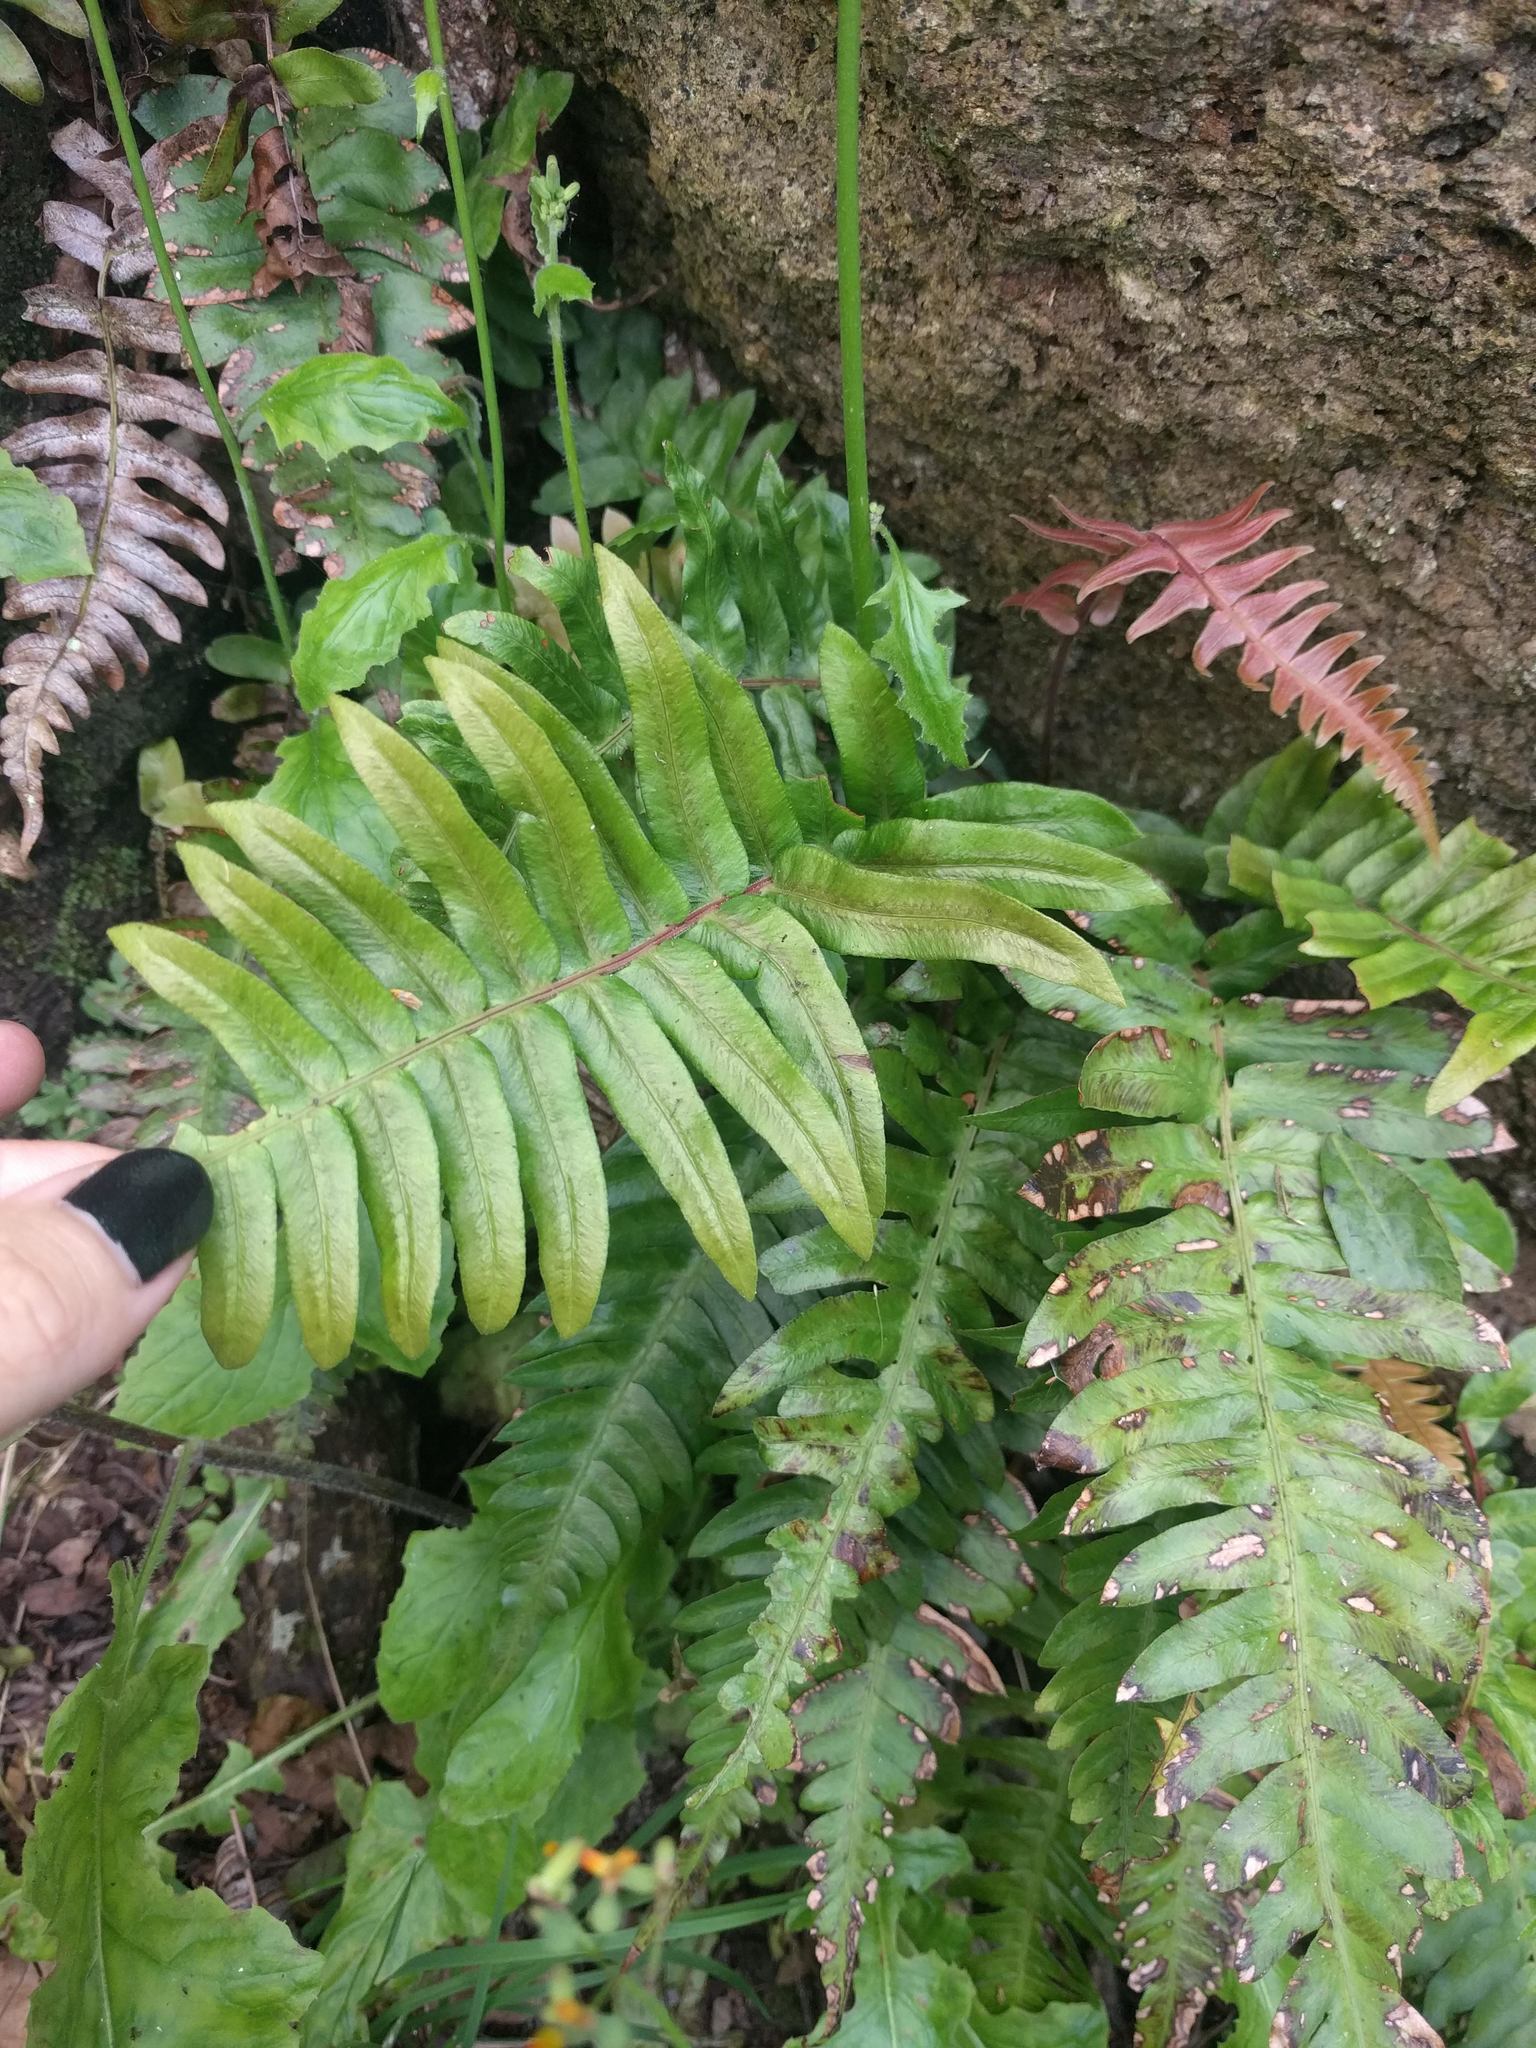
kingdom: Plantae
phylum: Tracheophyta
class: Polypodiopsida
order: Polypodiales
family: Blechnaceae
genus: Blechnum
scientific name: Blechnum appendiculatum
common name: Palm fern
